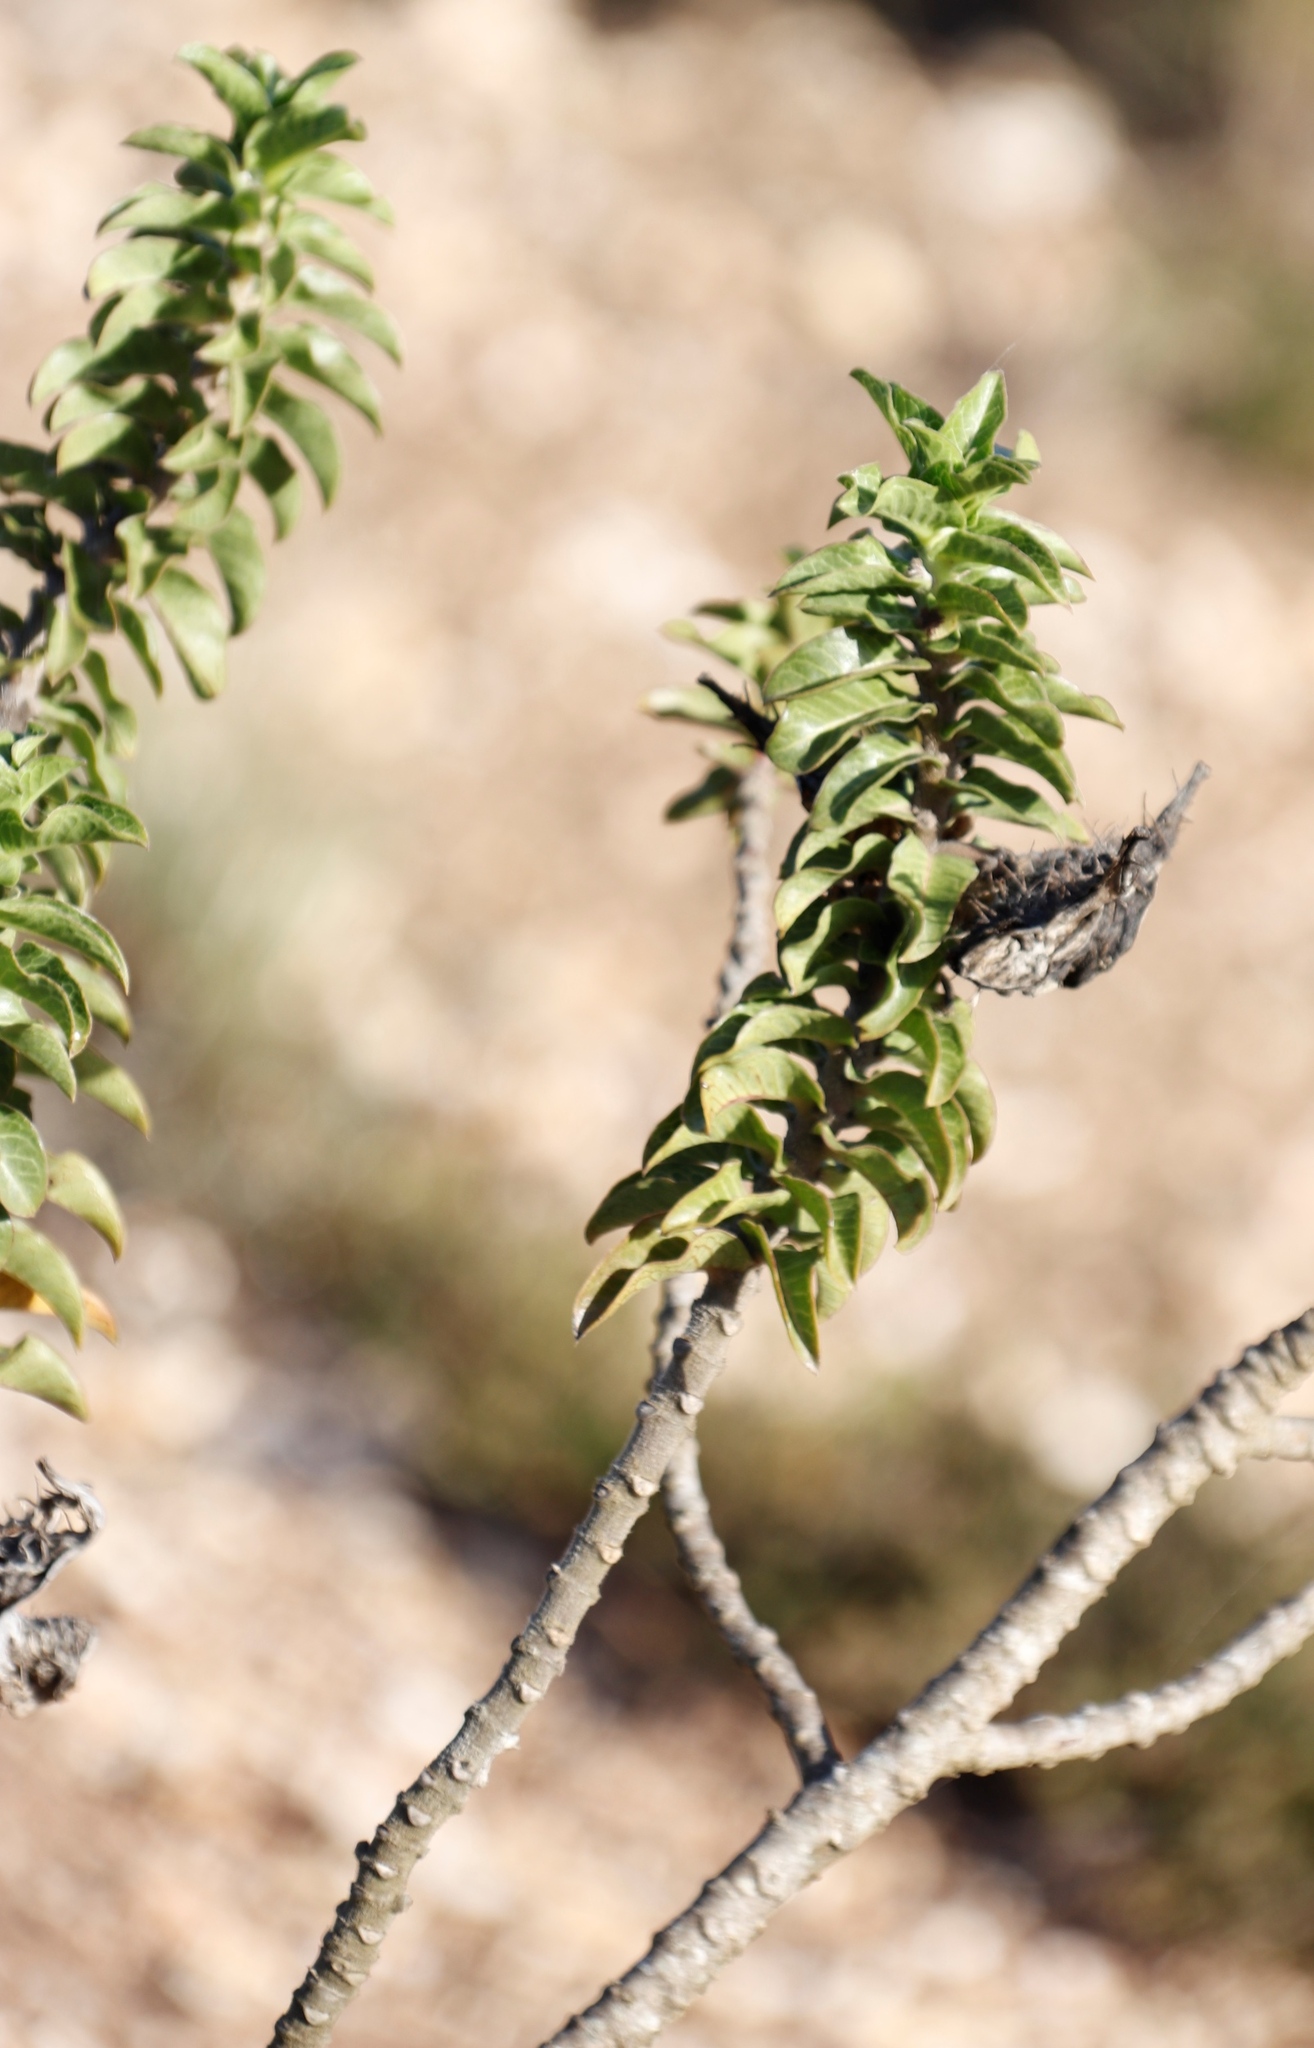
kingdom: Plantae
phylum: Tracheophyta
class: Magnoliopsida
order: Gentianales
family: Apocynaceae
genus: Gomphocarpus
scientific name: Gomphocarpus cancellatus
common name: Wild cotton
